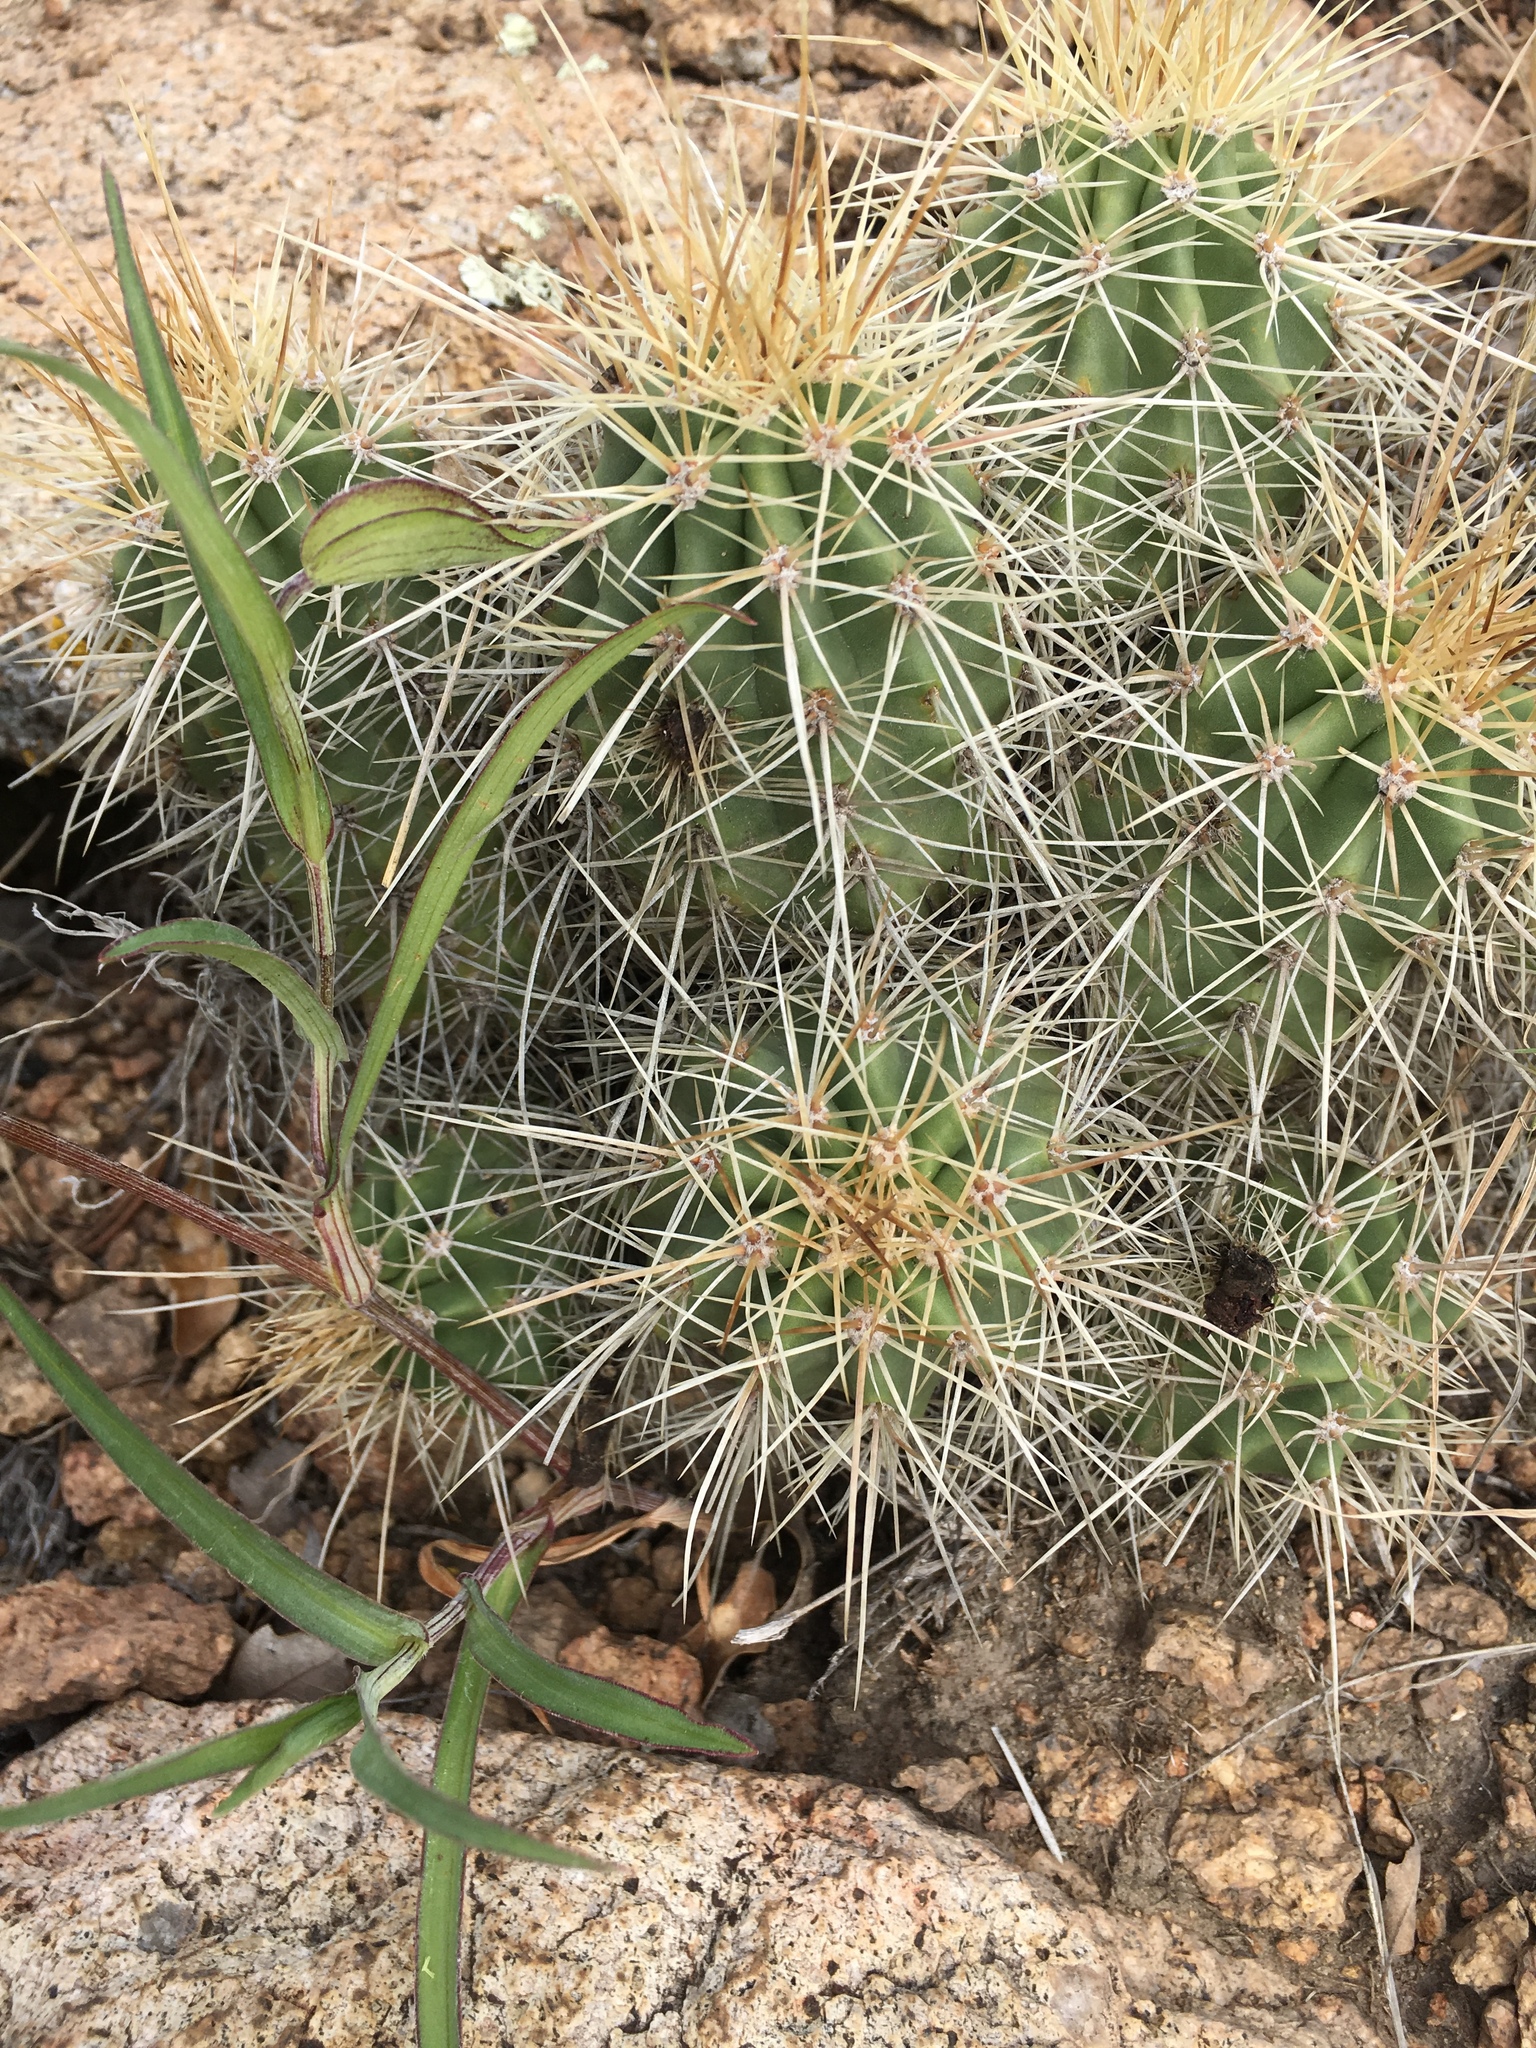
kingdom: Plantae
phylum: Tracheophyta
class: Magnoliopsida
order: Caryophyllales
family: Cactaceae
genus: Echinocereus
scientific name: Echinocereus coccineus
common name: Scarlet hedgehog cactus
